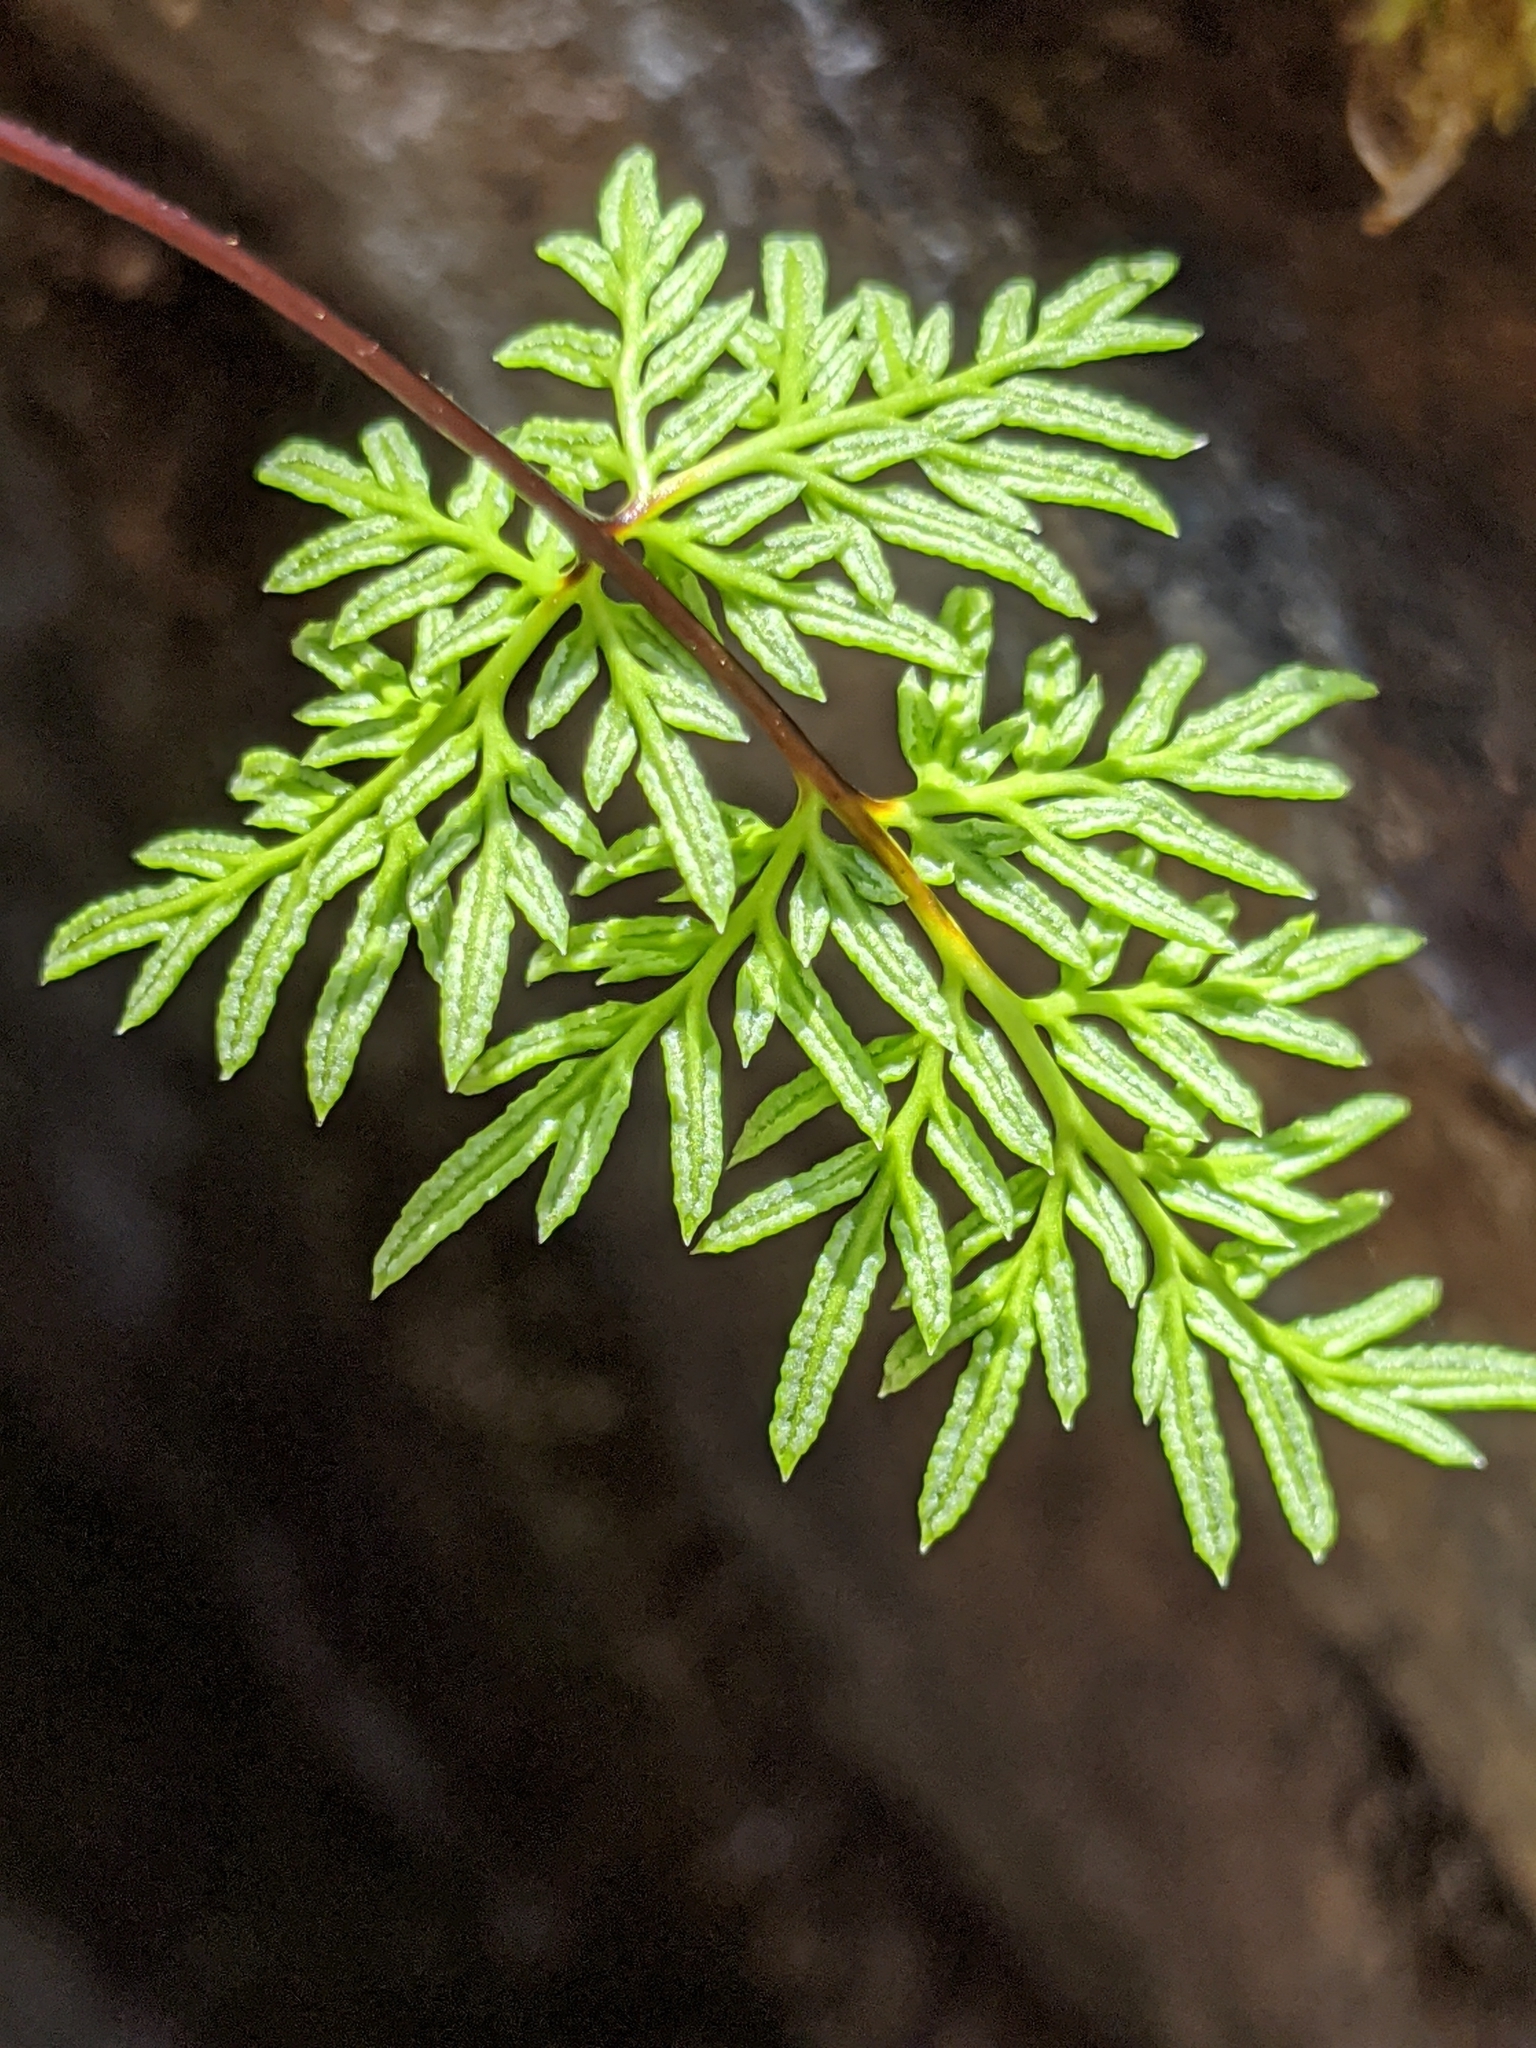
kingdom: Plantae
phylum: Tracheophyta
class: Polypodiopsida
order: Polypodiales
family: Pteridaceae
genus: Aspidotis
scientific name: Aspidotis densa
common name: Indian's dream
